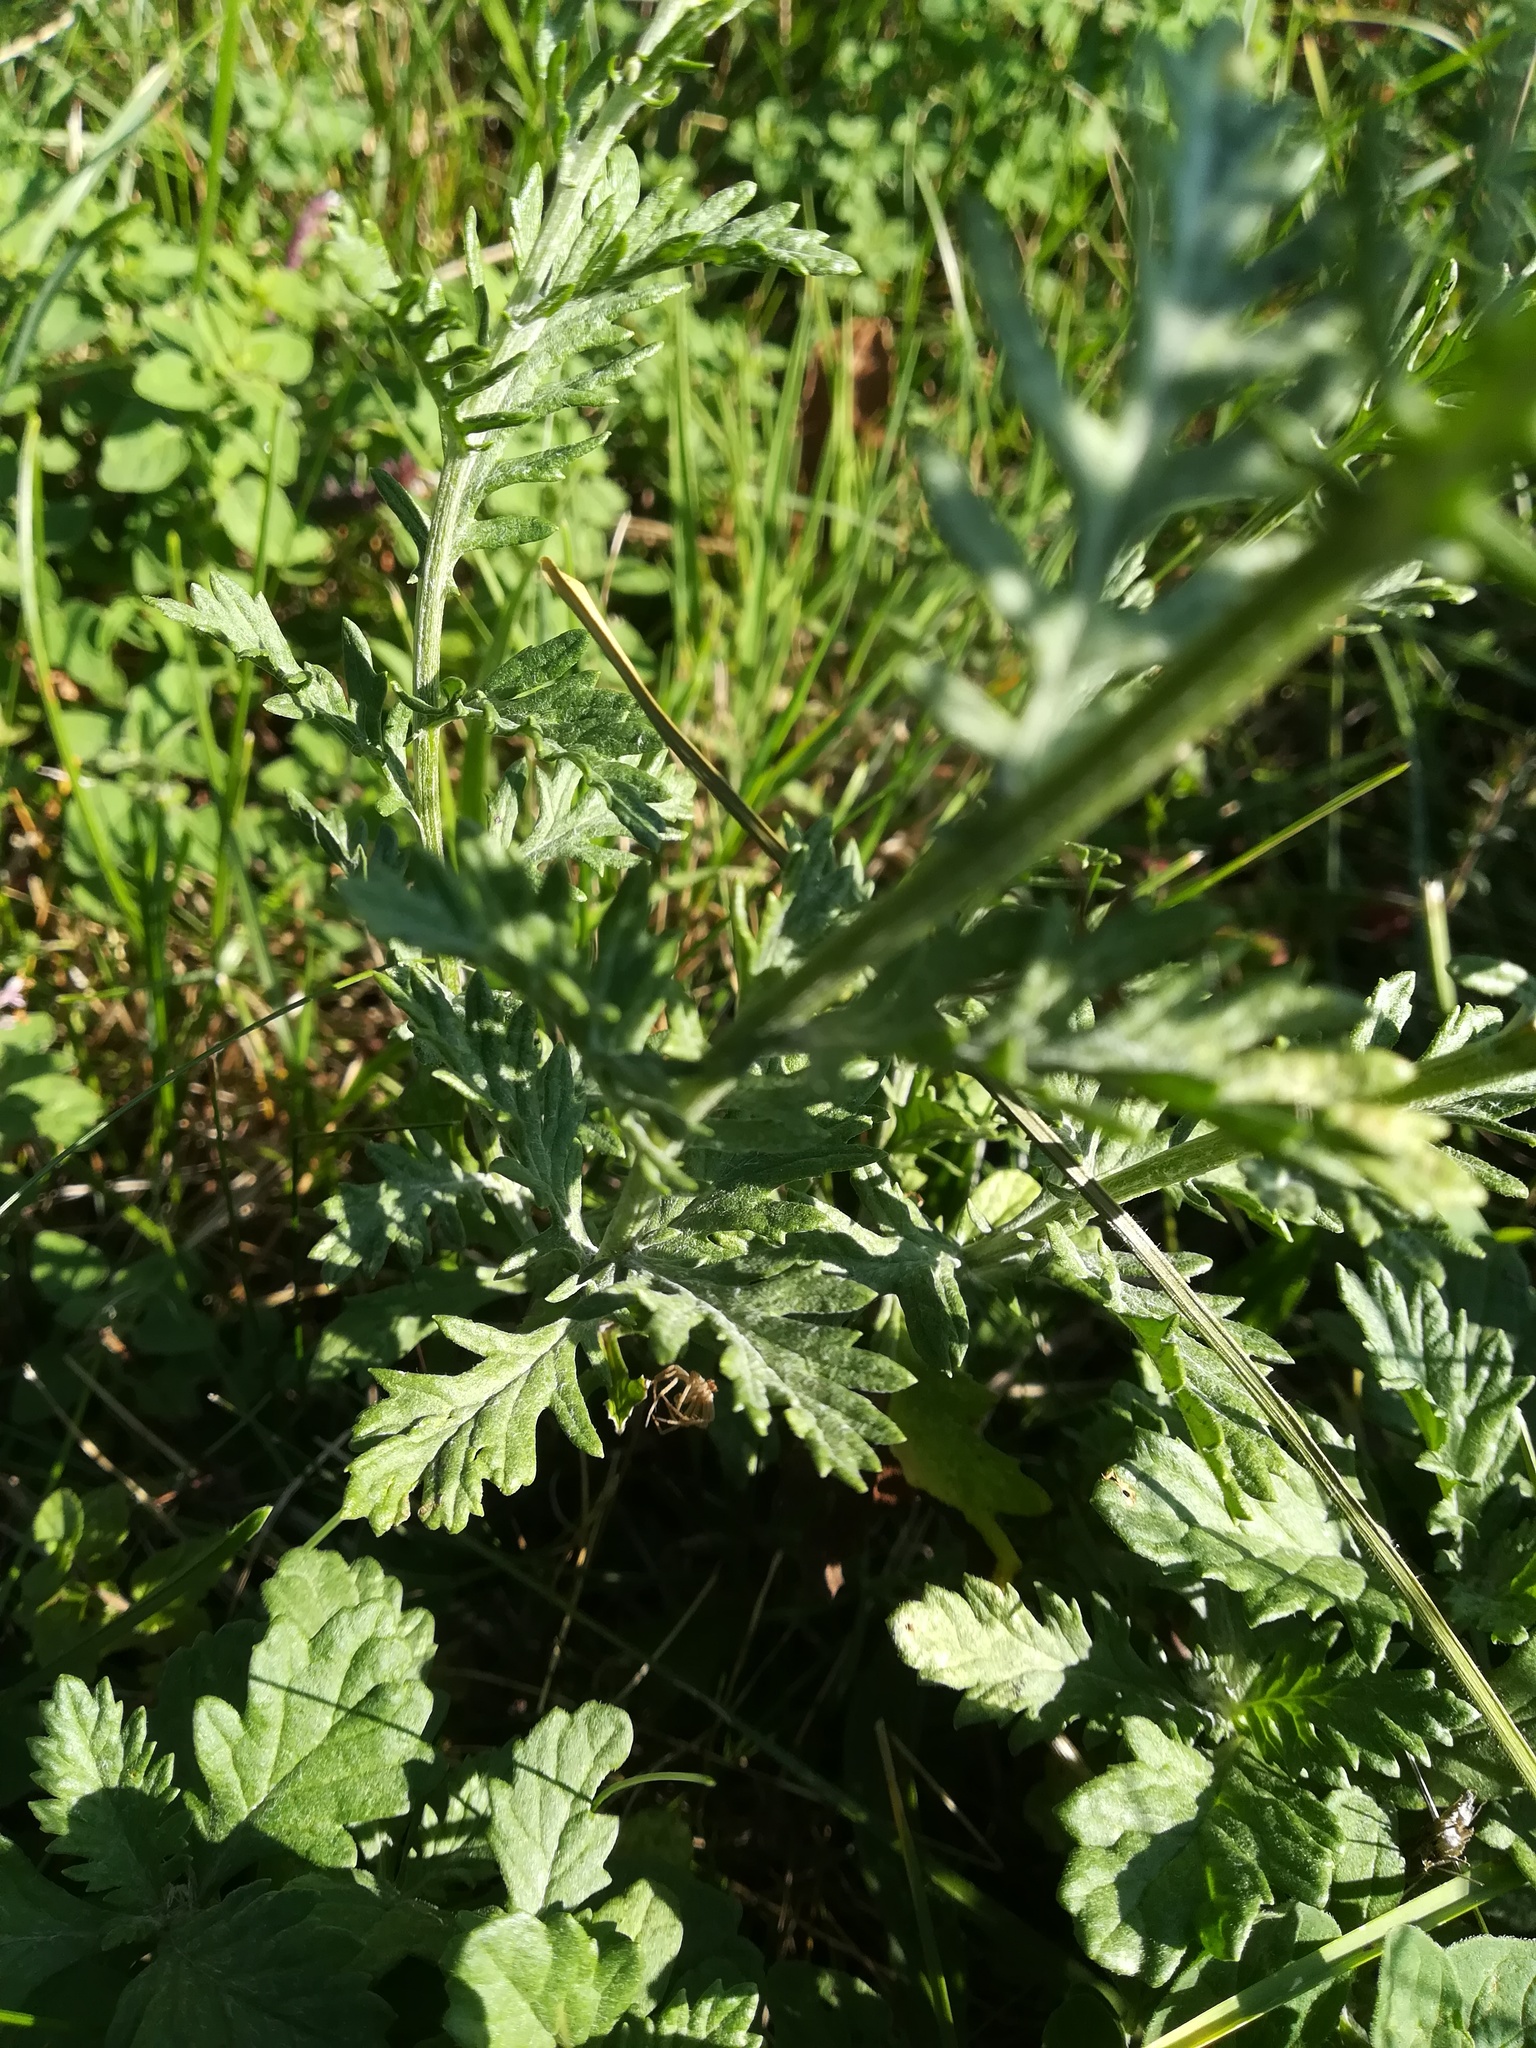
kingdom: Plantae
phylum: Tracheophyta
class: Magnoliopsida
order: Asterales
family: Asteraceae
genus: Jacobaea
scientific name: Jacobaea vulgaris
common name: Stinking willie
